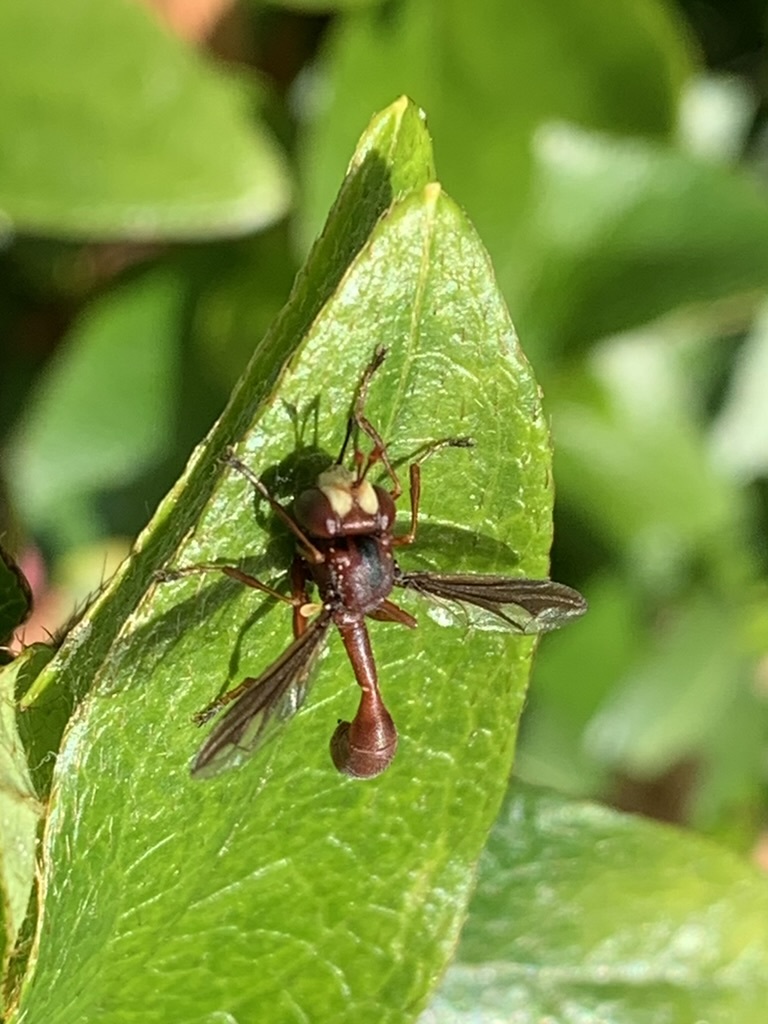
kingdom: Animalia
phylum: Arthropoda
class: Insecta
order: Diptera
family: Conopidae
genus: Physocephala
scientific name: Physocephala burgessi
